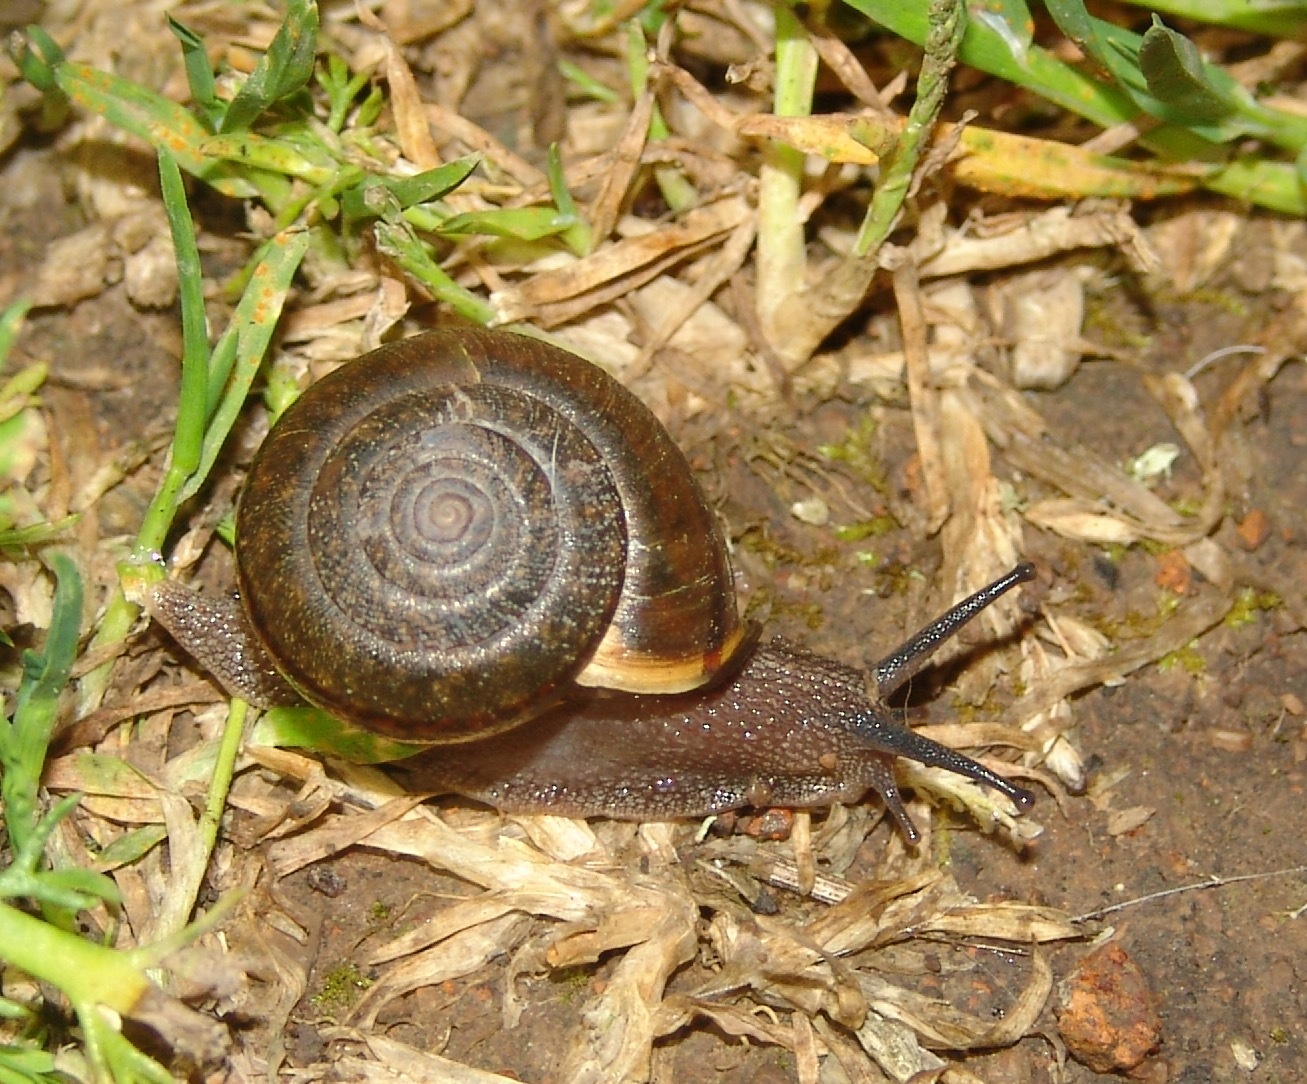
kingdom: Animalia
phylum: Mollusca
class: Gastropoda
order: Stylommatophora
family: Xanthonychidae
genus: Helminthoglypta
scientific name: Helminthoglypta diabloensis
